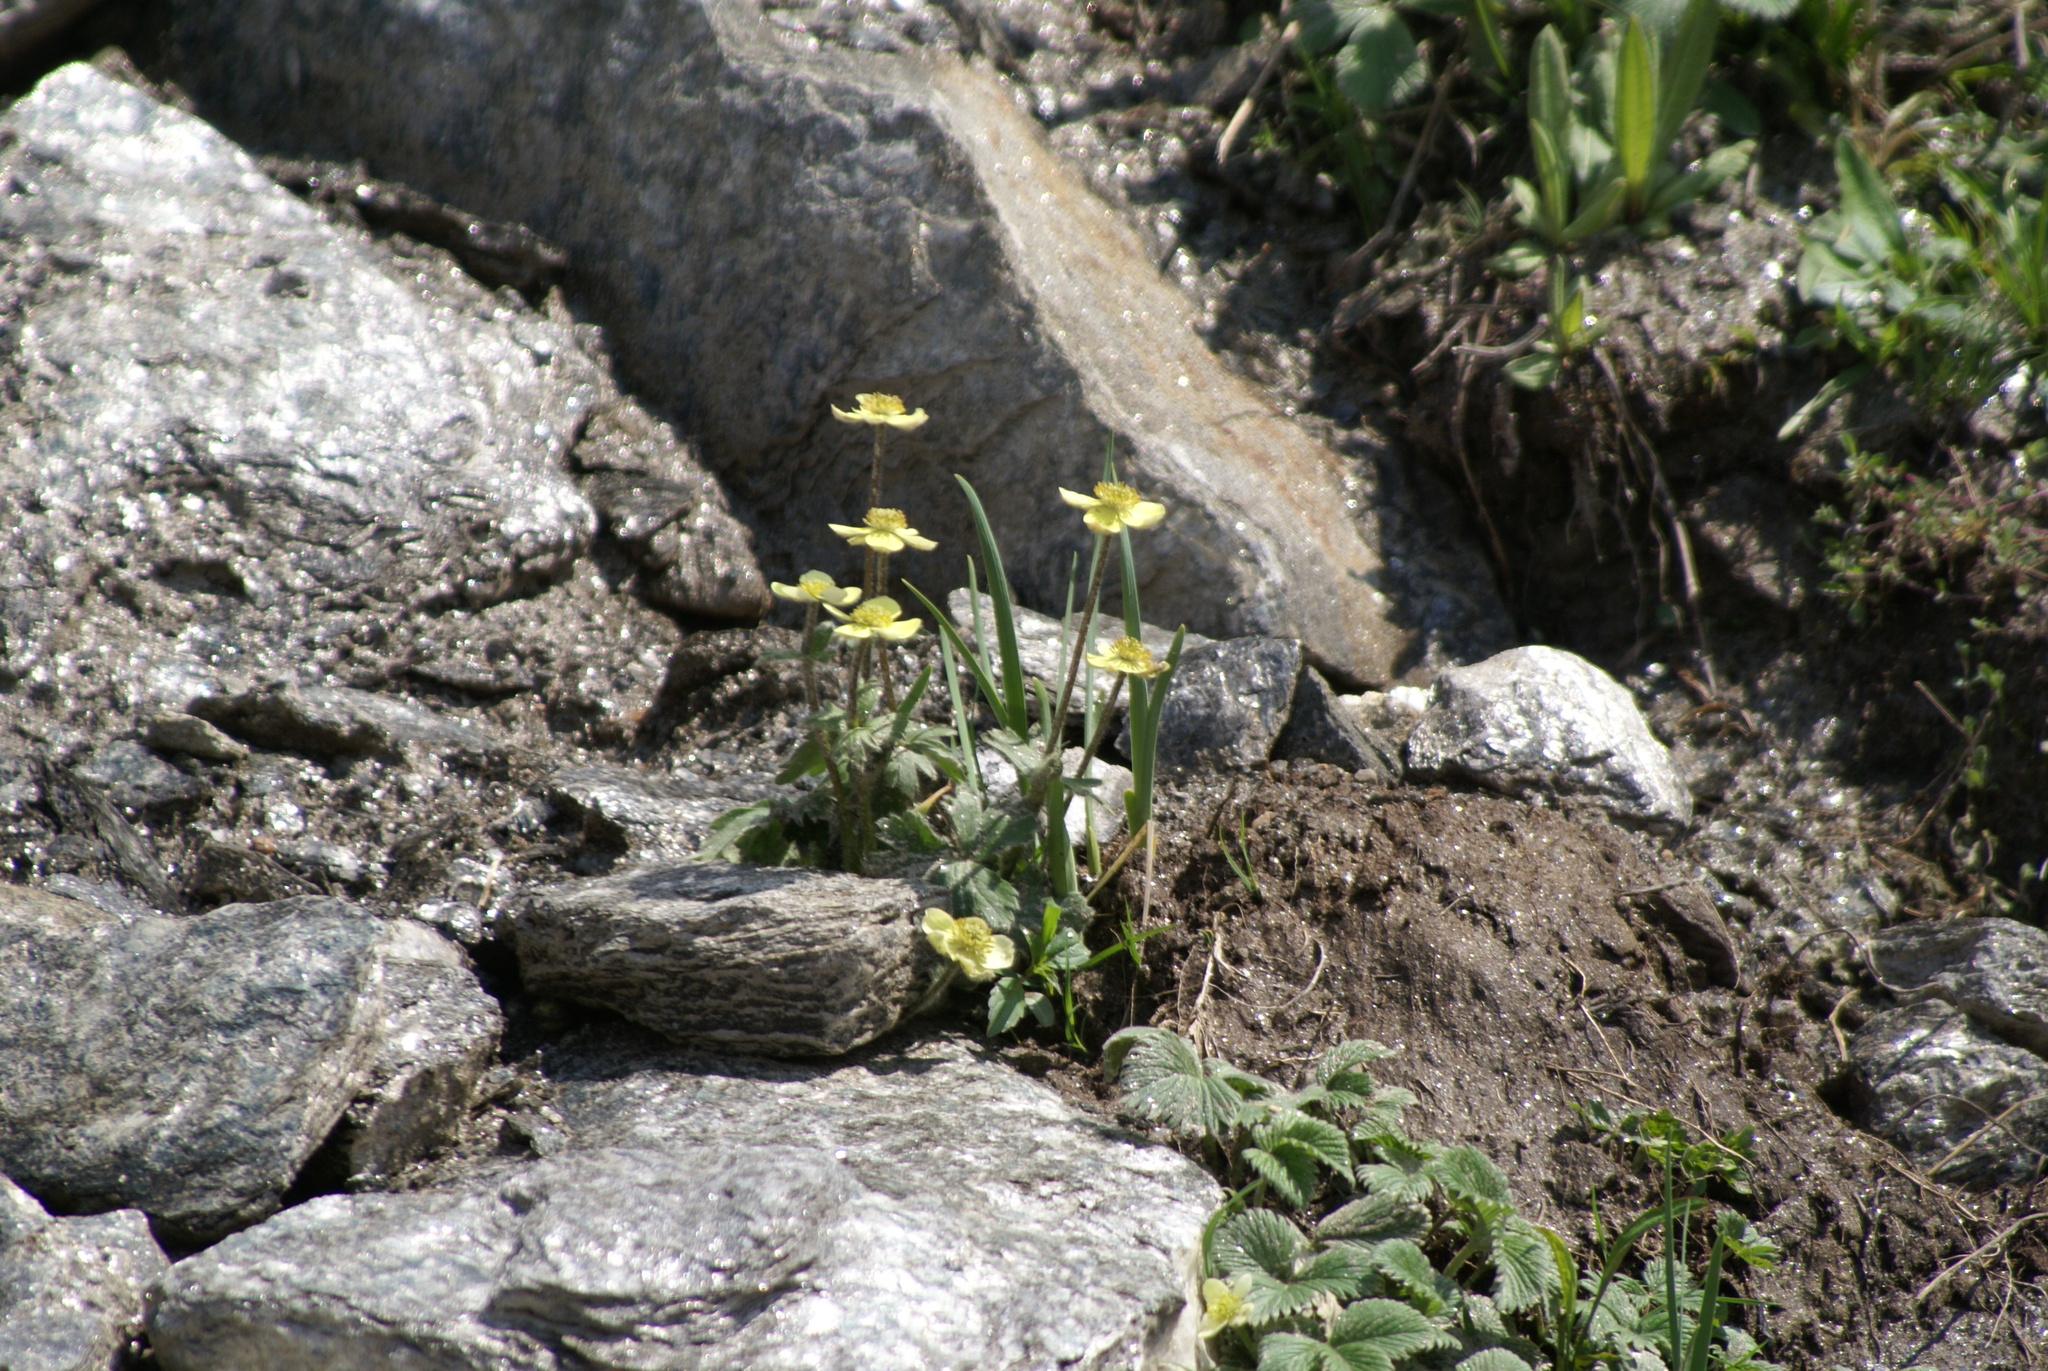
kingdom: Plantae
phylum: Tracheophyta
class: Magnoliopsida
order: Ranunculales
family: Ranunculaceae
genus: Anemonastrum
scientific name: Anemonastrum obtusilobum
